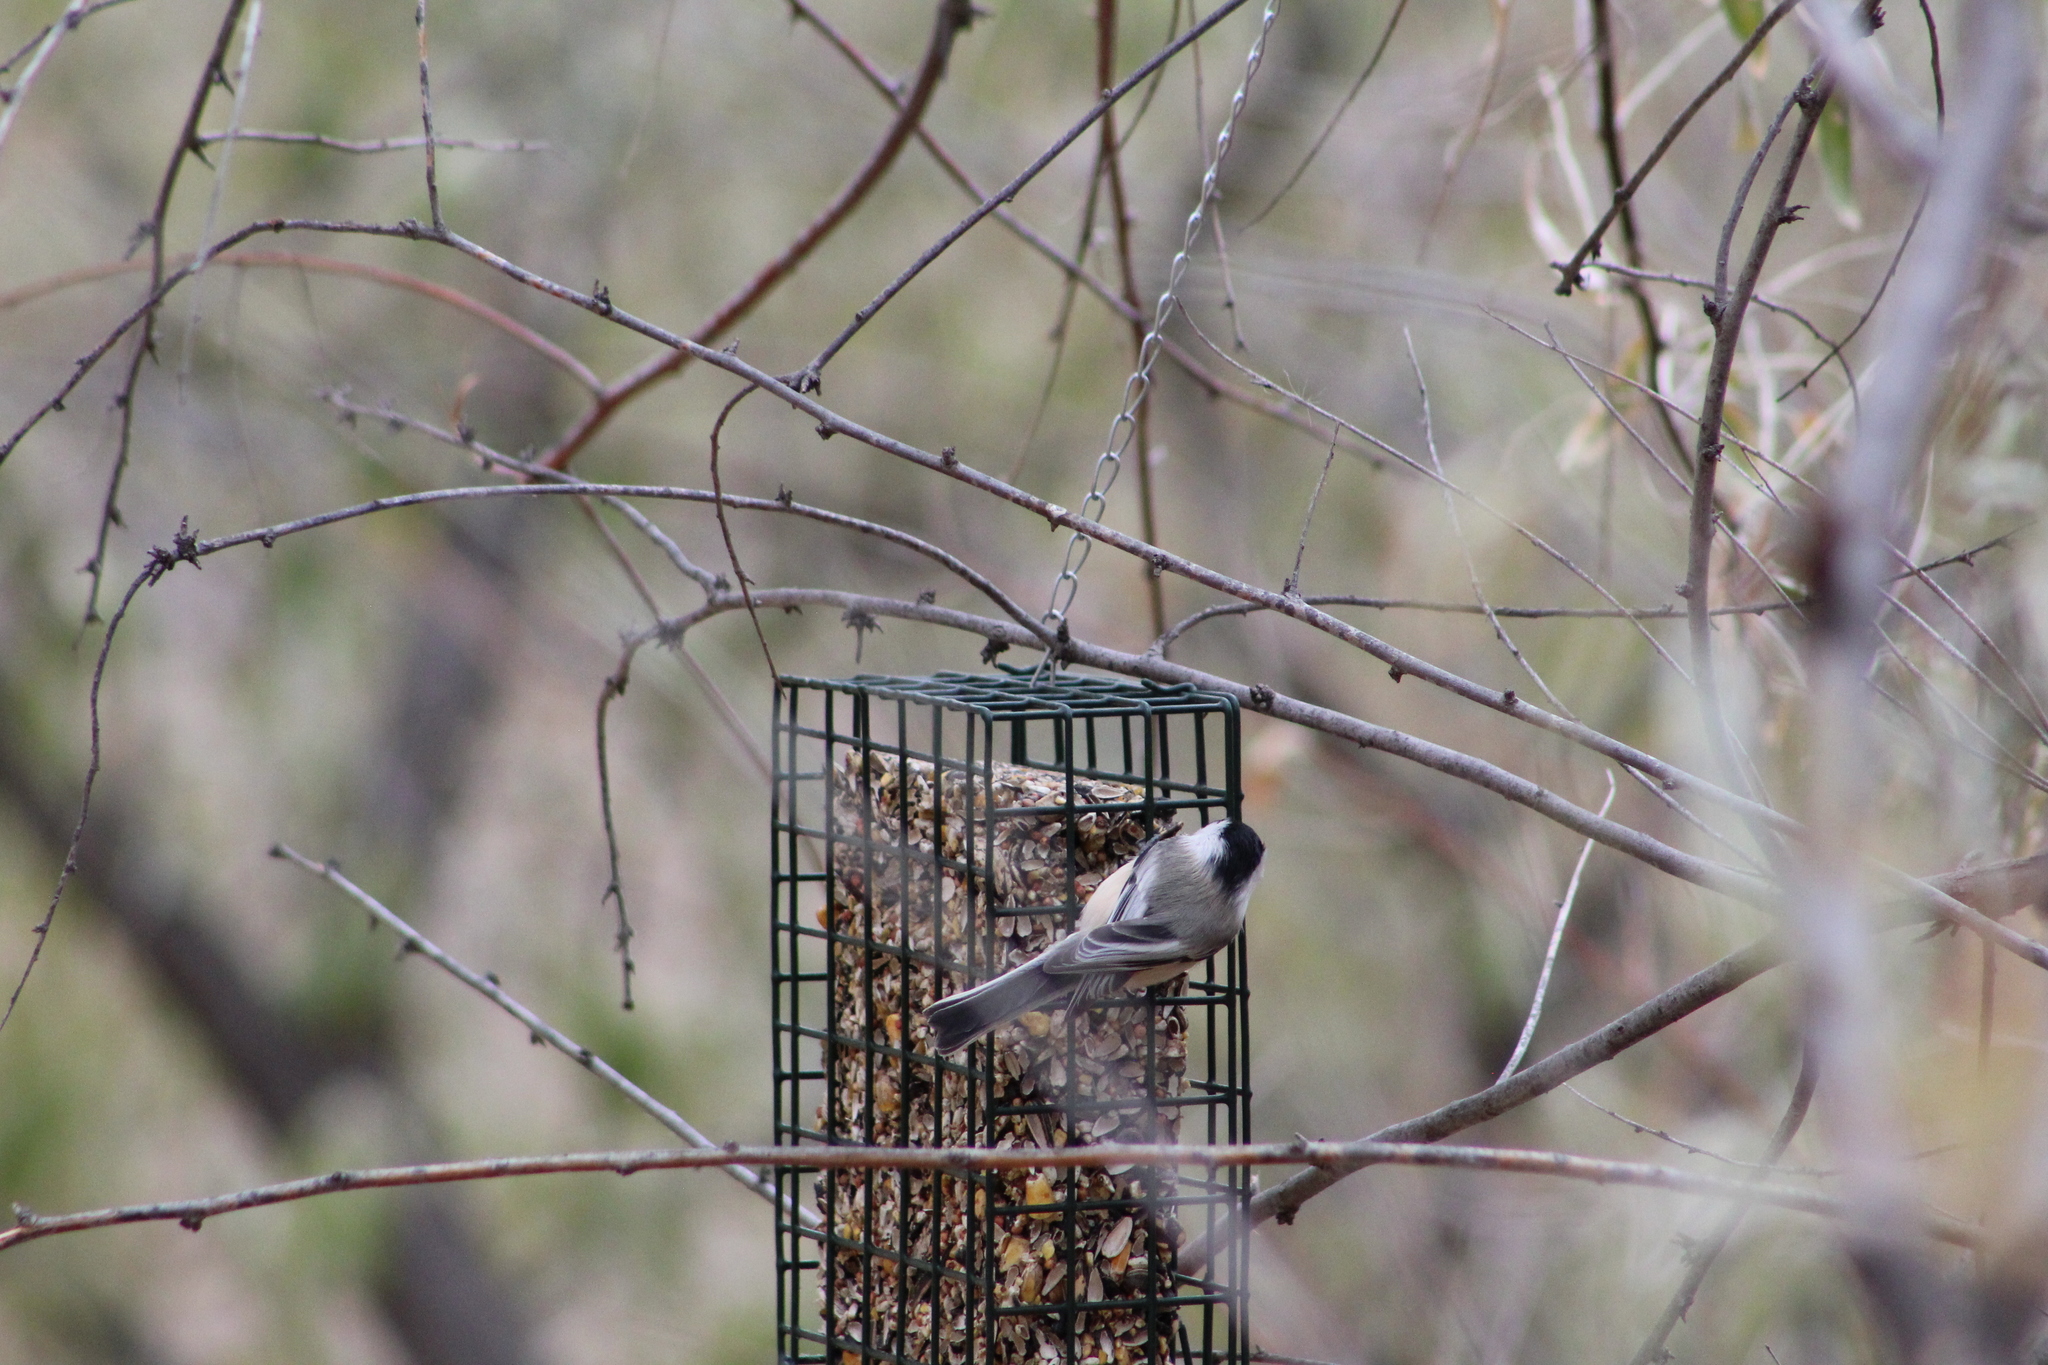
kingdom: Animalia
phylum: Chordata
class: Aves
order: Passeriformes
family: Paridae
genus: Poecile
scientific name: Poecile atricapillus
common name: Black-capped chickadee
